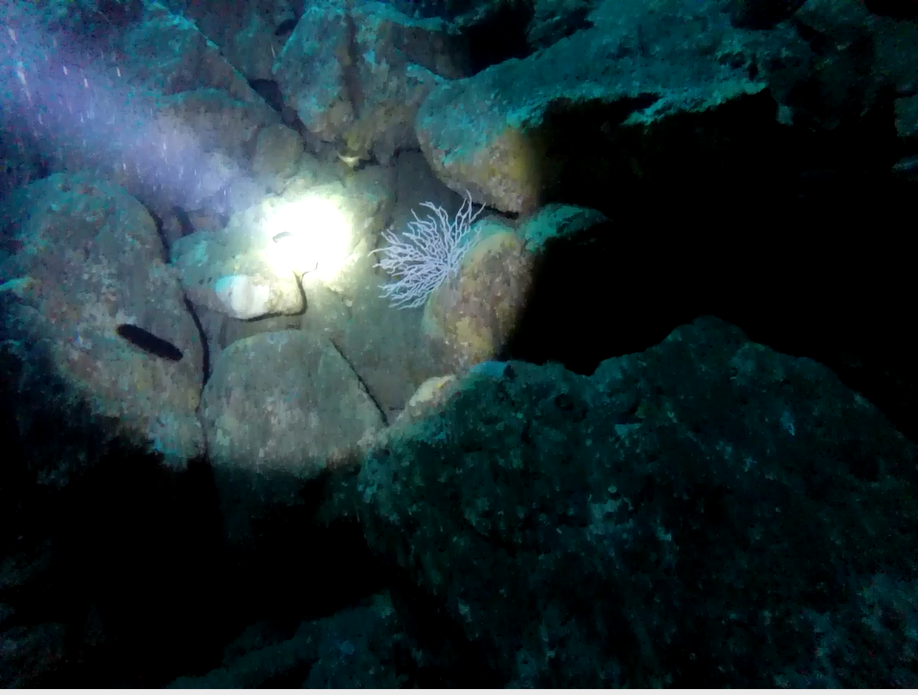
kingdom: Animalia
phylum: Cnidaria
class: Anthozoa
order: Malacalcyonacea
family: Eunicellidae
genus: Eunicella
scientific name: Eunicella verrucosa
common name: Pink sea-fan
